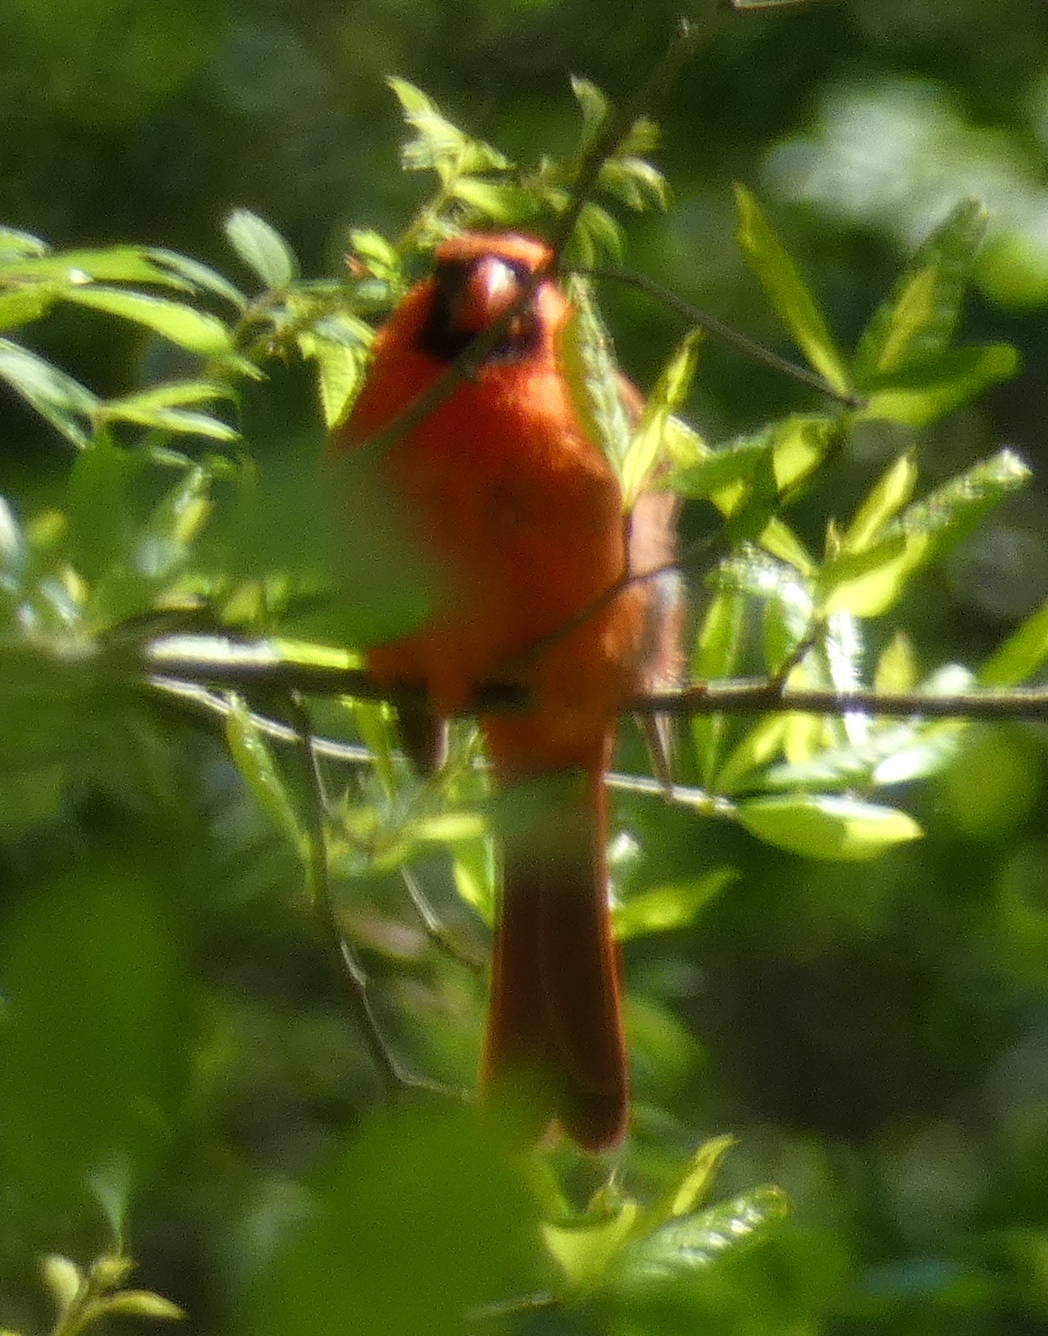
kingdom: Animalia
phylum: Chordata
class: Aves
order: Passeriformes
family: Cardinalidae
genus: Cardinalis
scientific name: Cardinalis cardinalis
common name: Northern cardinal
